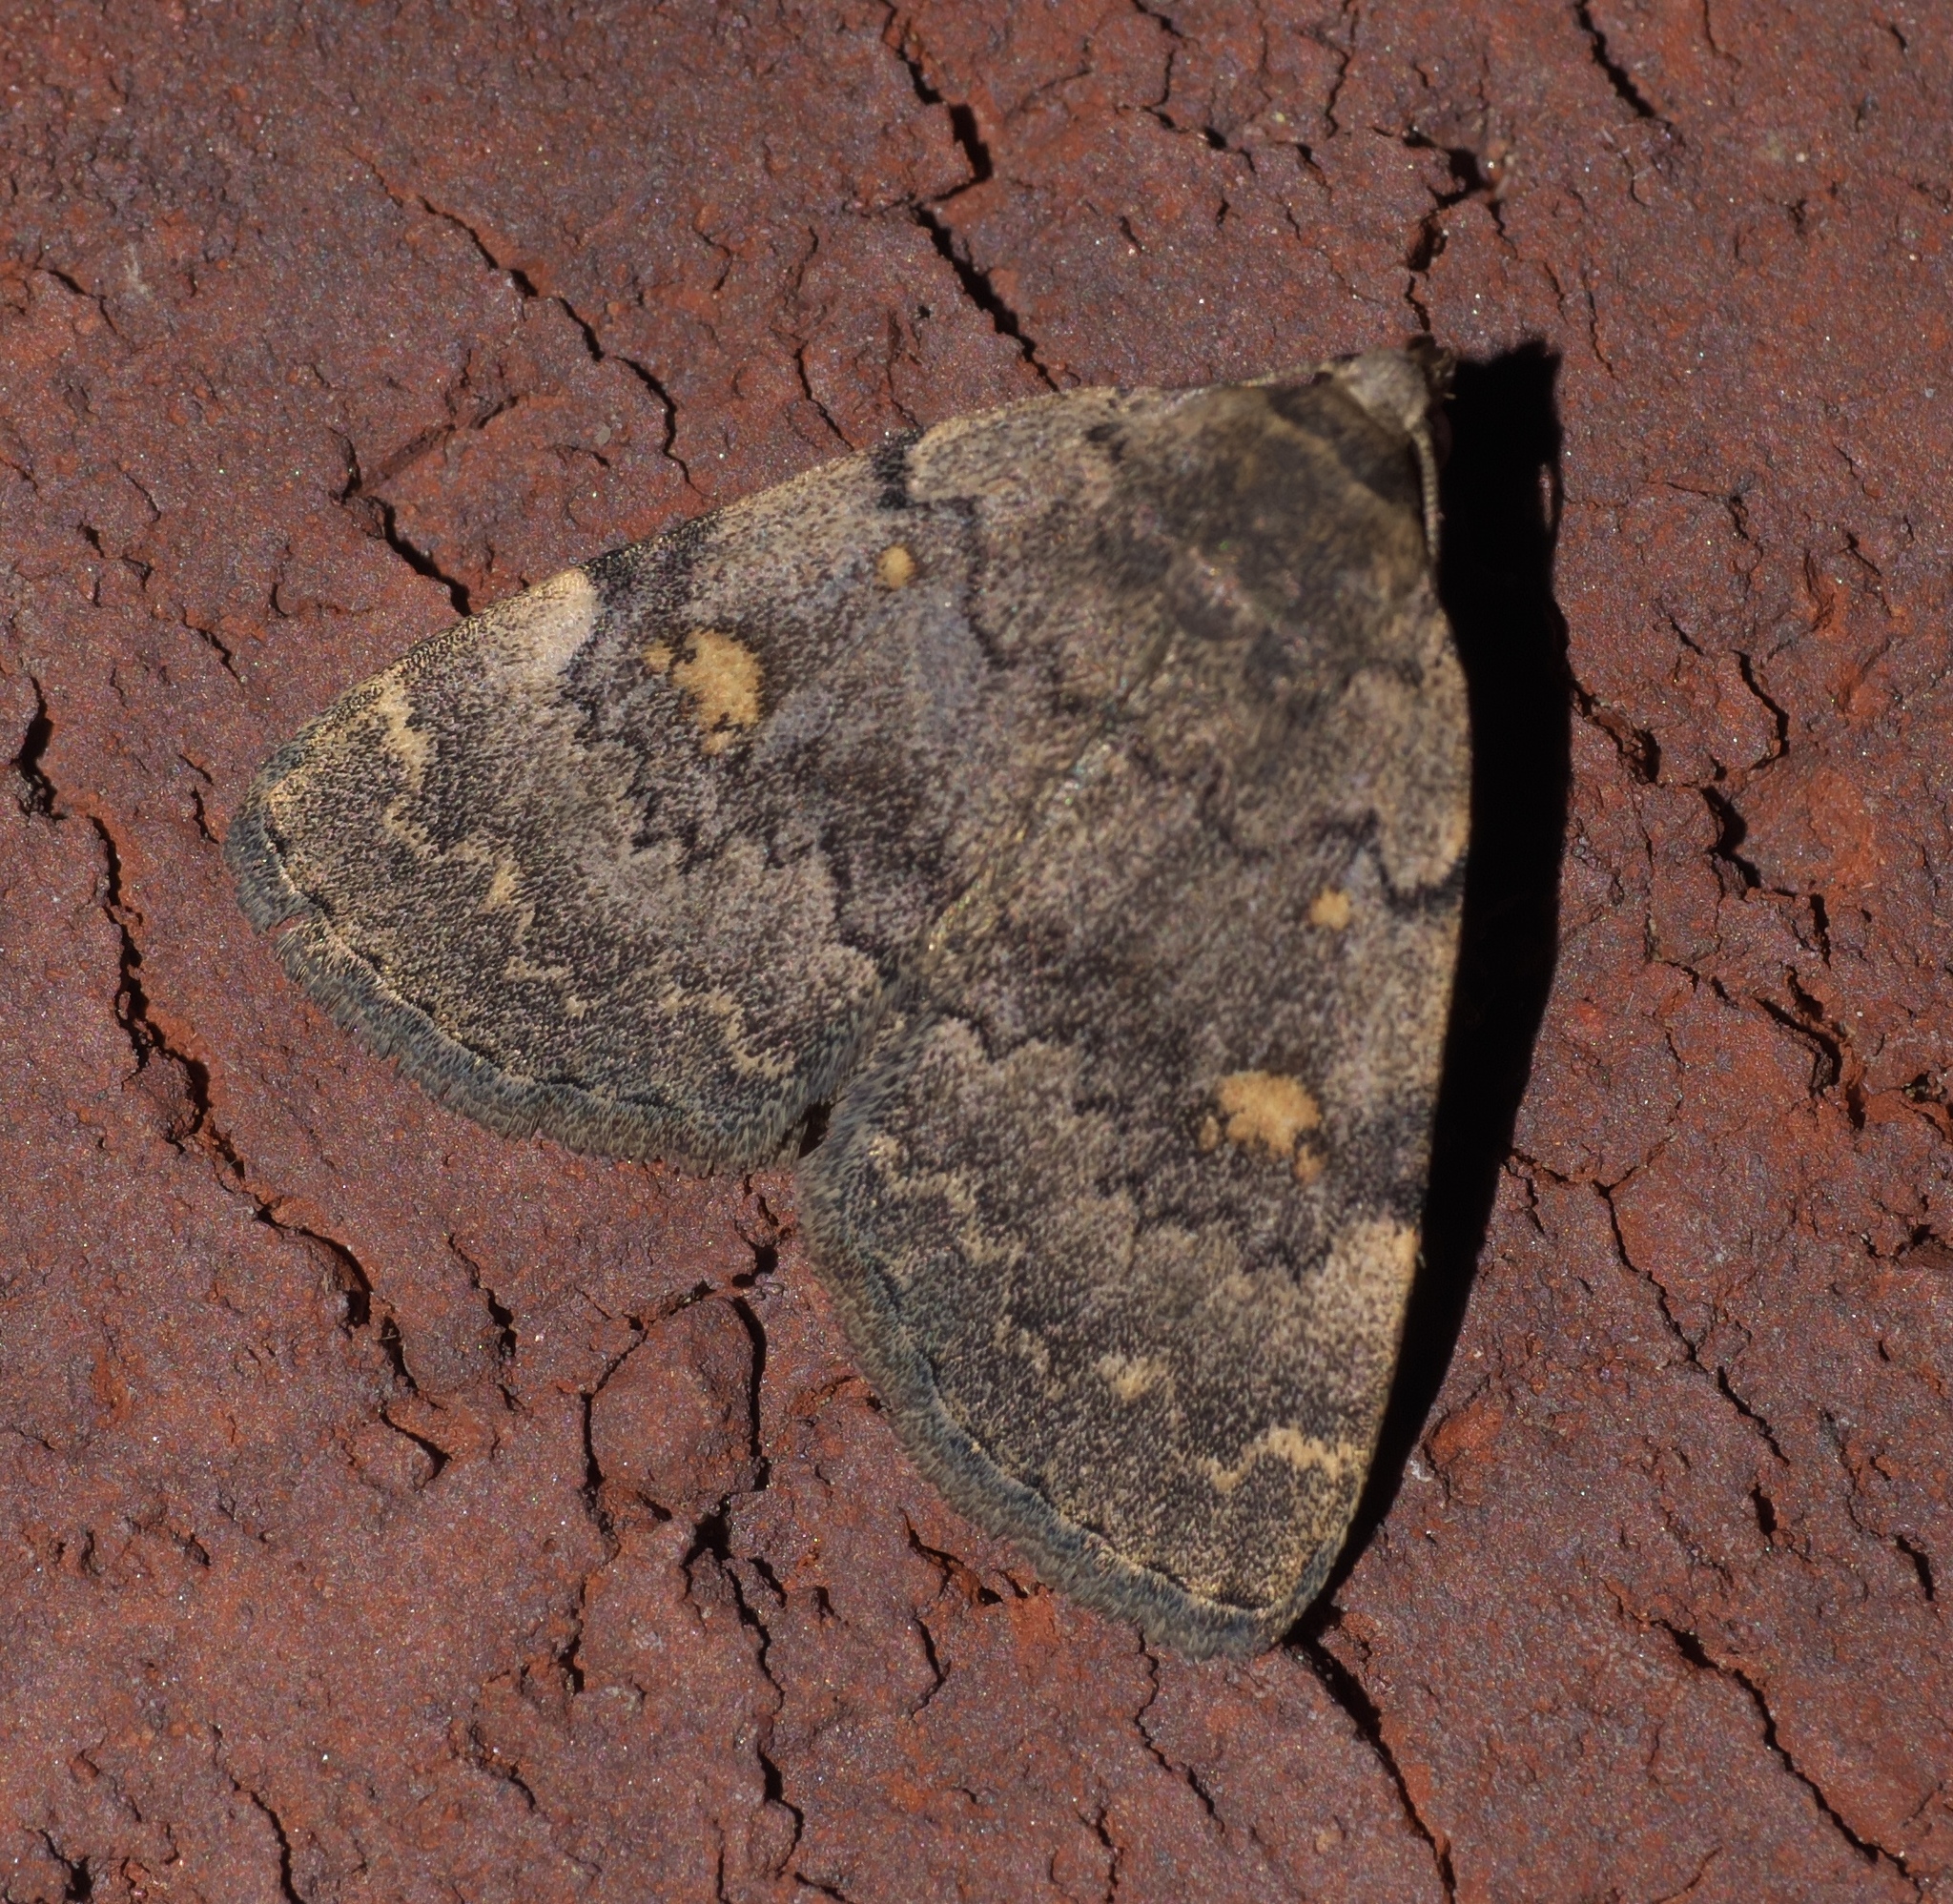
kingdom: Animalia
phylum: Arthropoda
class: Insecta
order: Lepidoptera
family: Erebidae
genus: Idia
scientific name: Idia aemula
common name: Common idia moth
